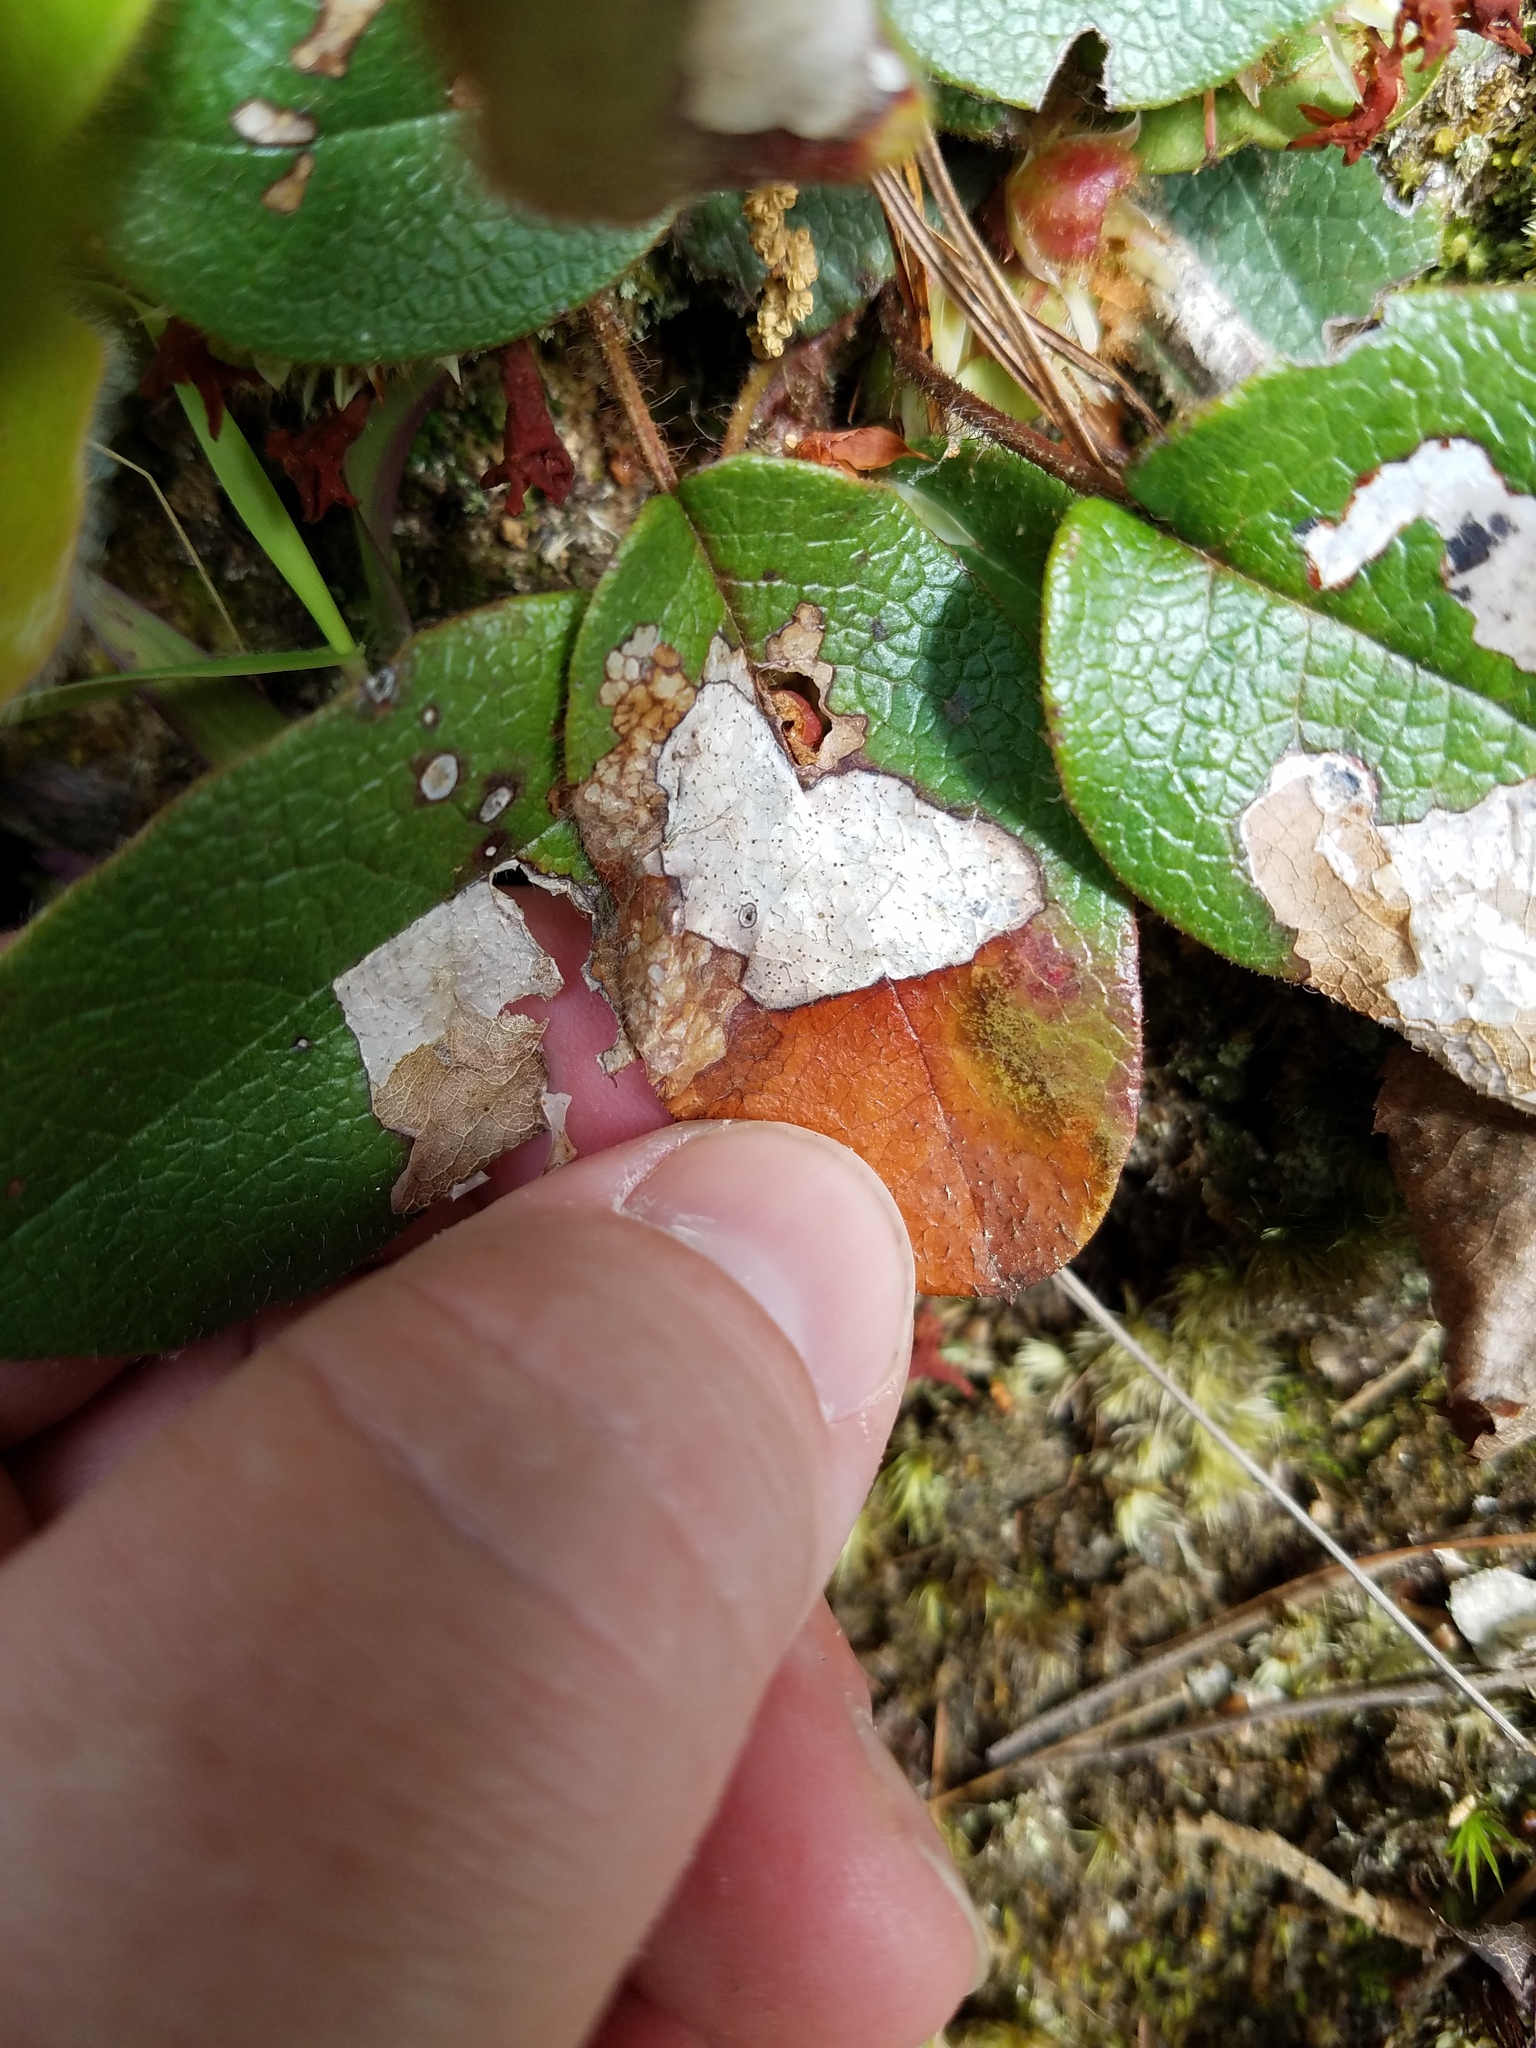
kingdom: Animalia
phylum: Arthropoda
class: Insecta
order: Coleoptera
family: Buprestidae
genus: Brachys
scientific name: Brachys
